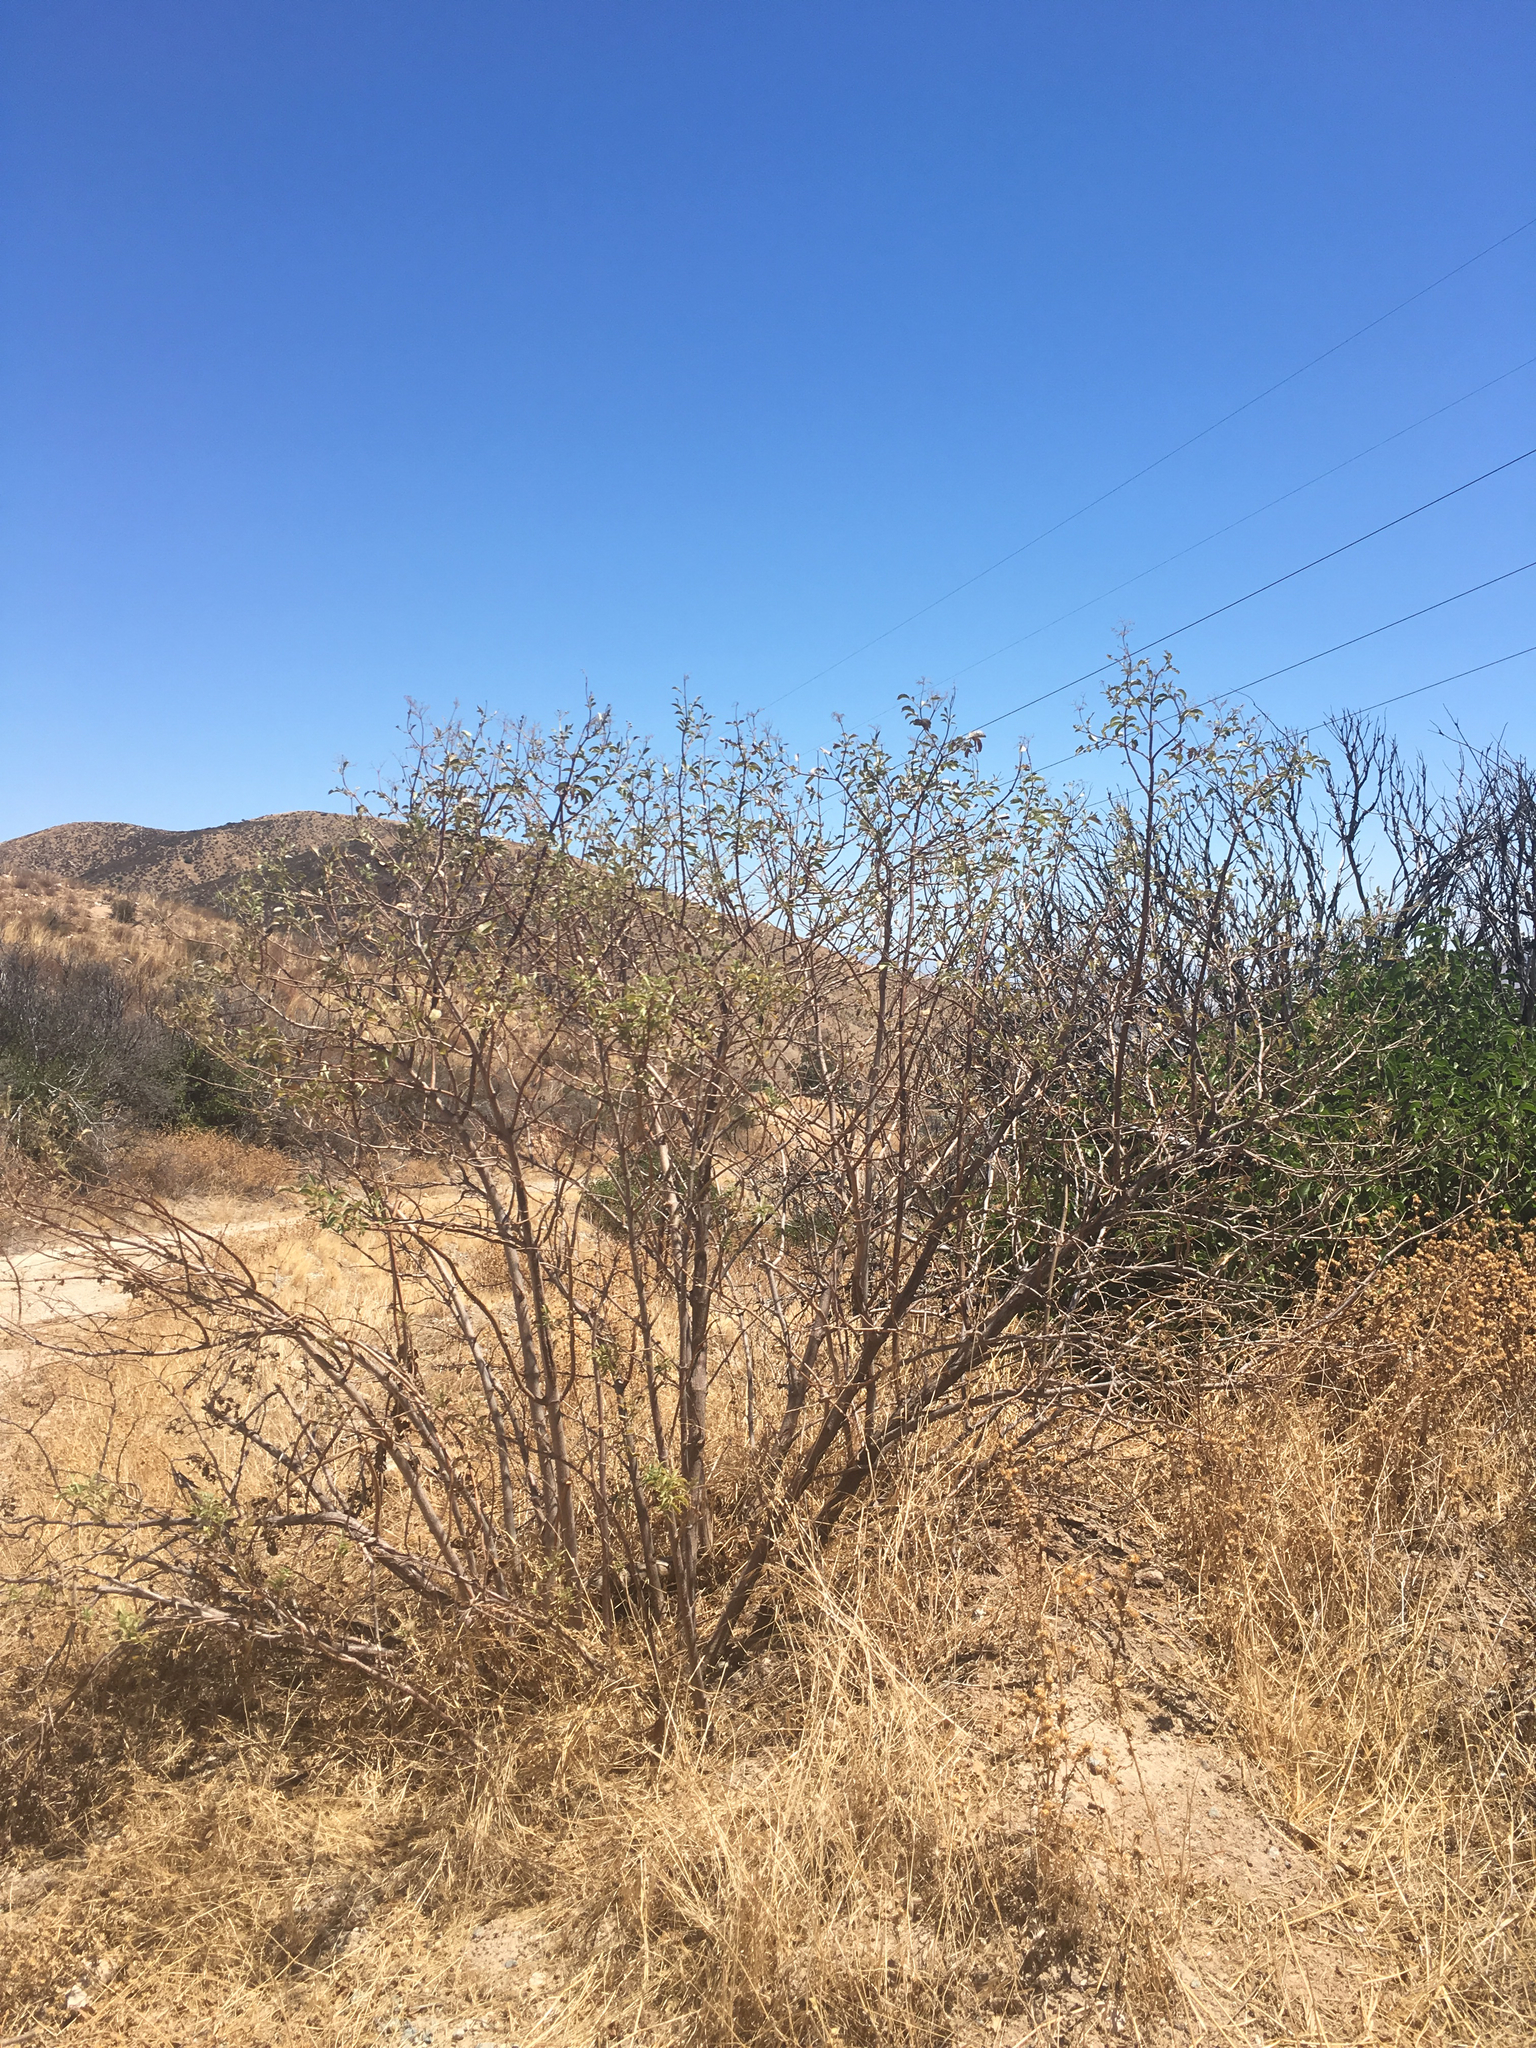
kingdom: Plantae
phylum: Tracheophyta
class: Magnoliopsida
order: Dipsacales
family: Viburnaceae
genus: Sambucus
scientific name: Sambucus cerulea
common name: Blue elder
